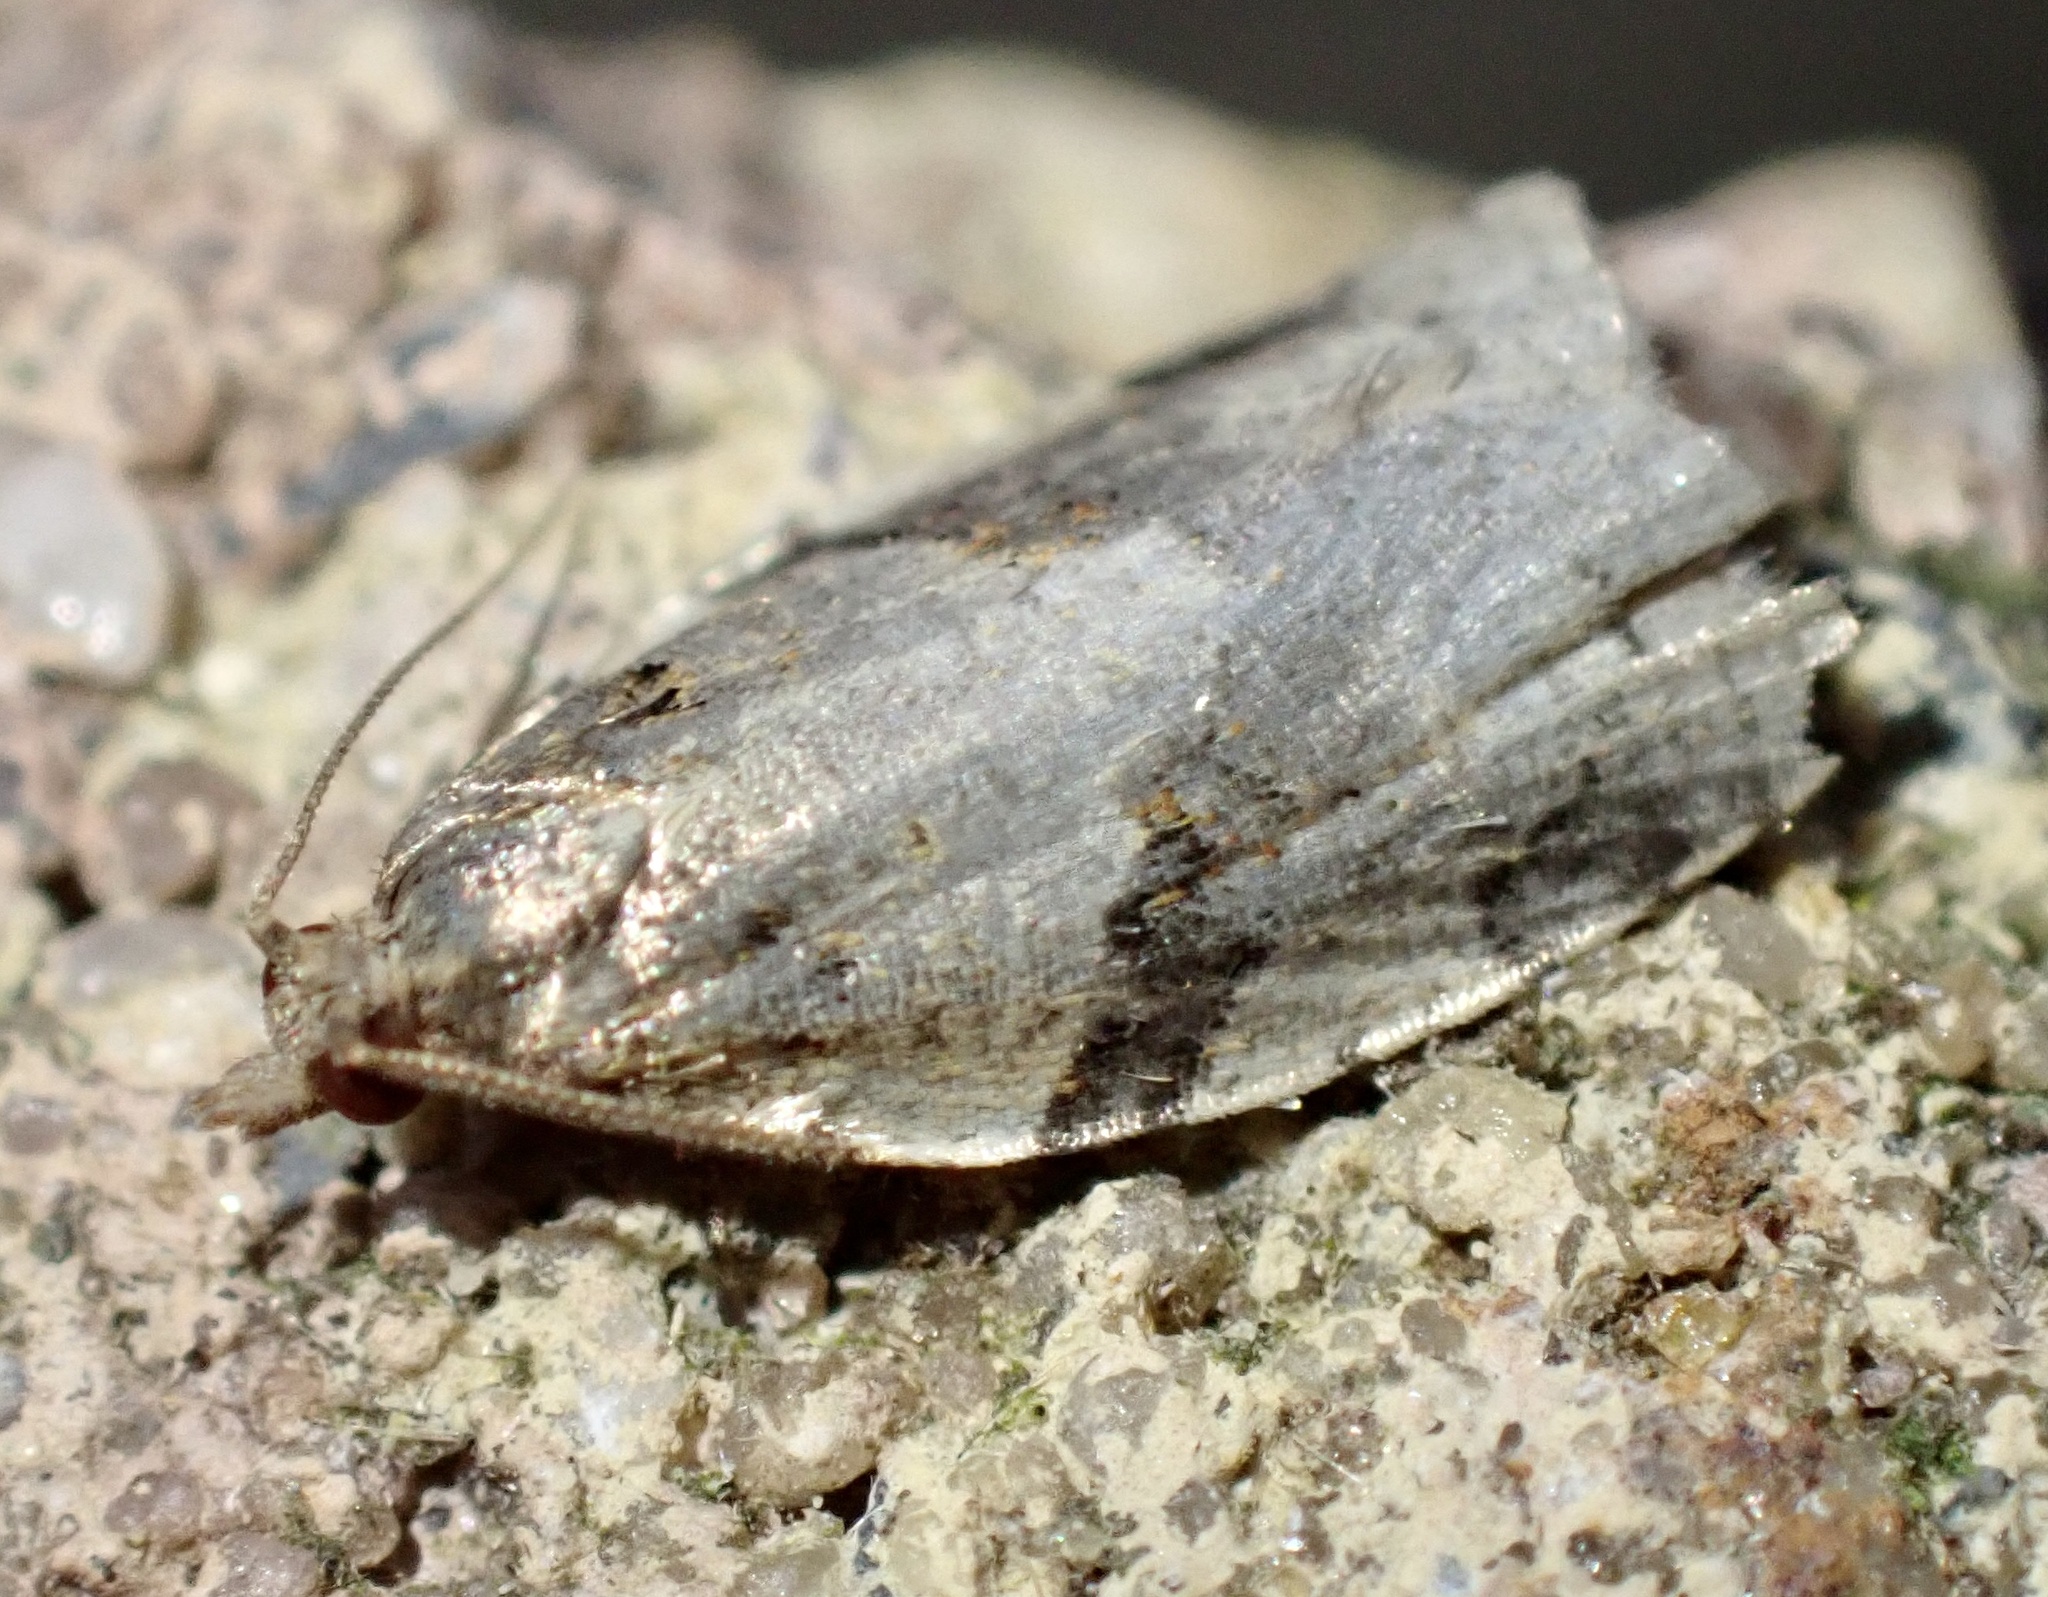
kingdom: Animalia
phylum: Arthropoda
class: Insecta
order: Lepidoptera
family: Tortricidae
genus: Clepsis
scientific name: Clepsis spectrana
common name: Cyclamen tortrix
